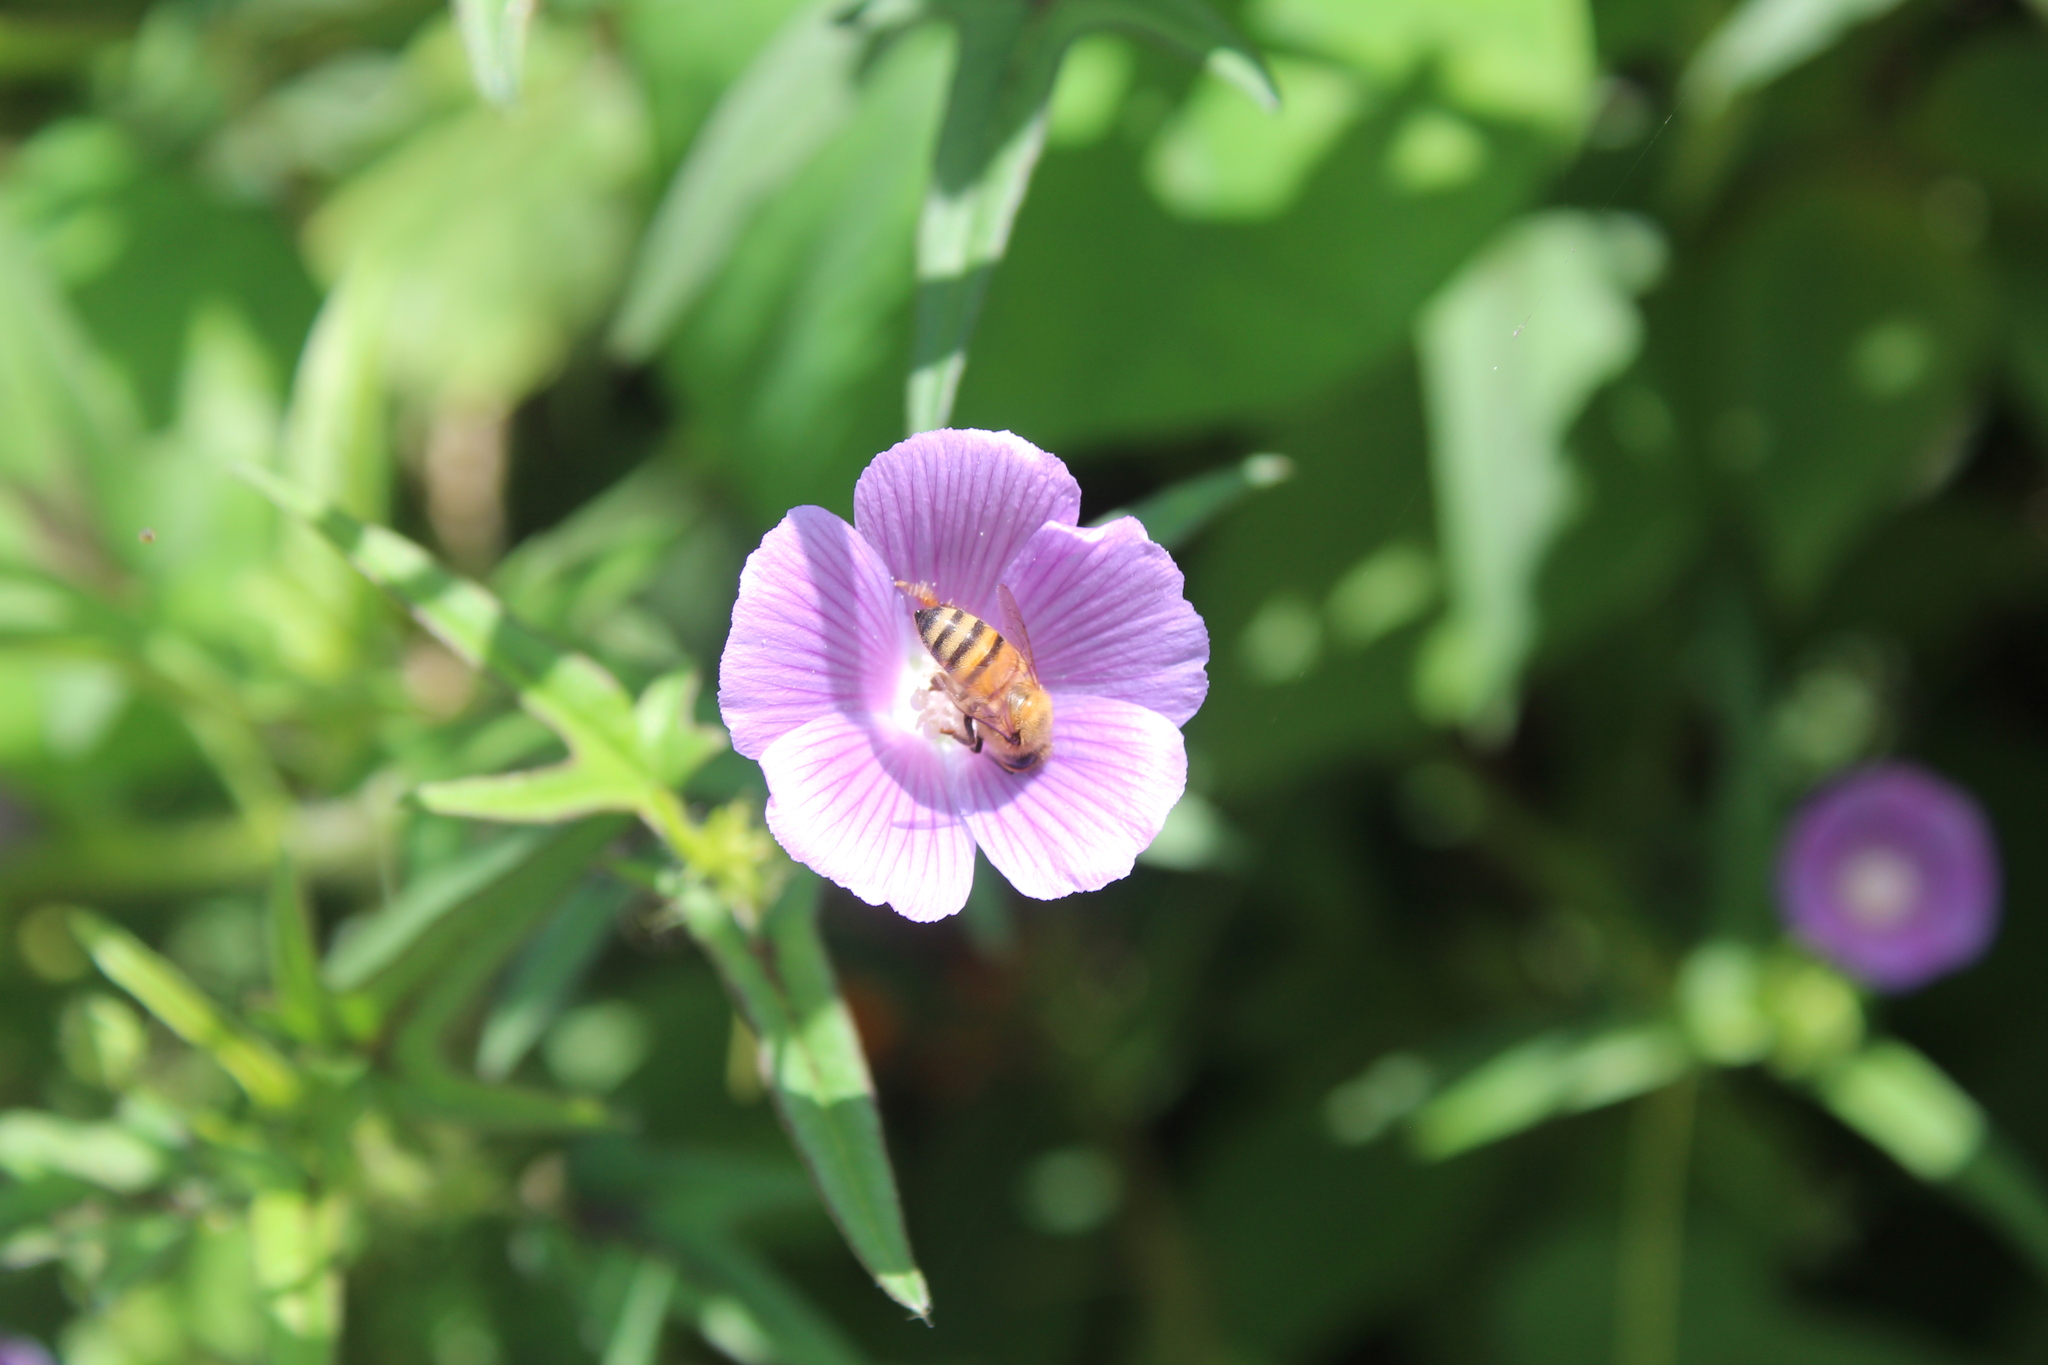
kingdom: Animalia
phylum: Arthropoda
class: Insecta
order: Hymenoptera
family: Apidae
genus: Apis
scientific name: Apis mellifera
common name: Honey bee
